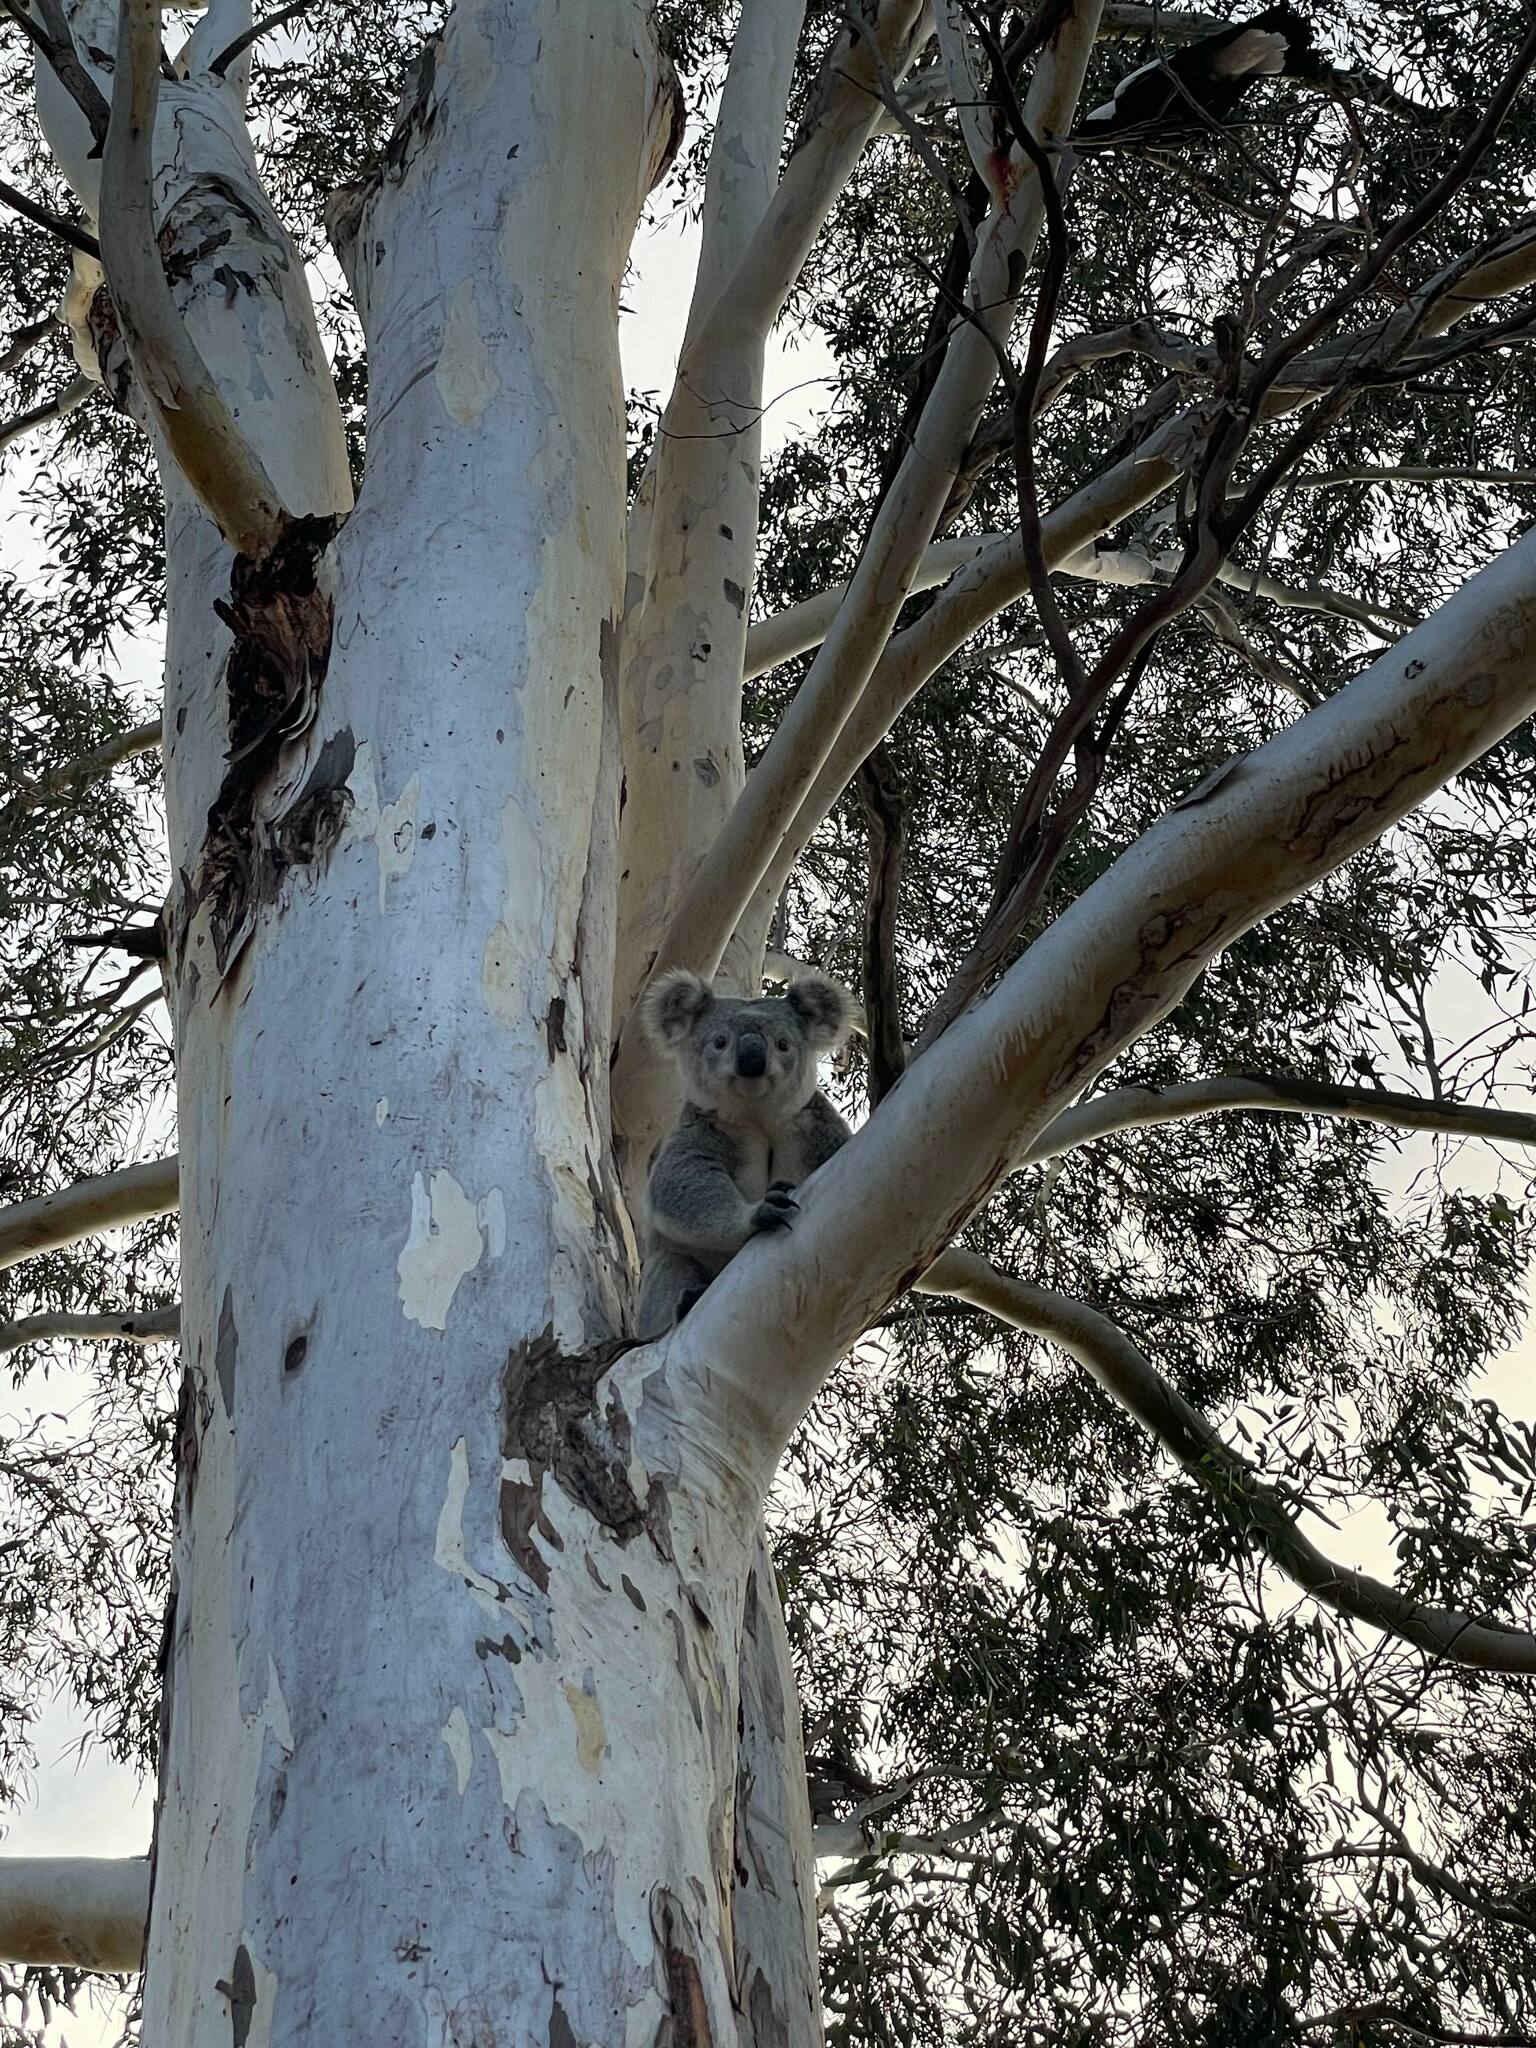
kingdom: Animalia
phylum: Chordata
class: Mammalia
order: Diprotodontia
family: Phascolarctidae
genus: Phascolarctos
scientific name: Phascolarctos cinereus
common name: Koala
